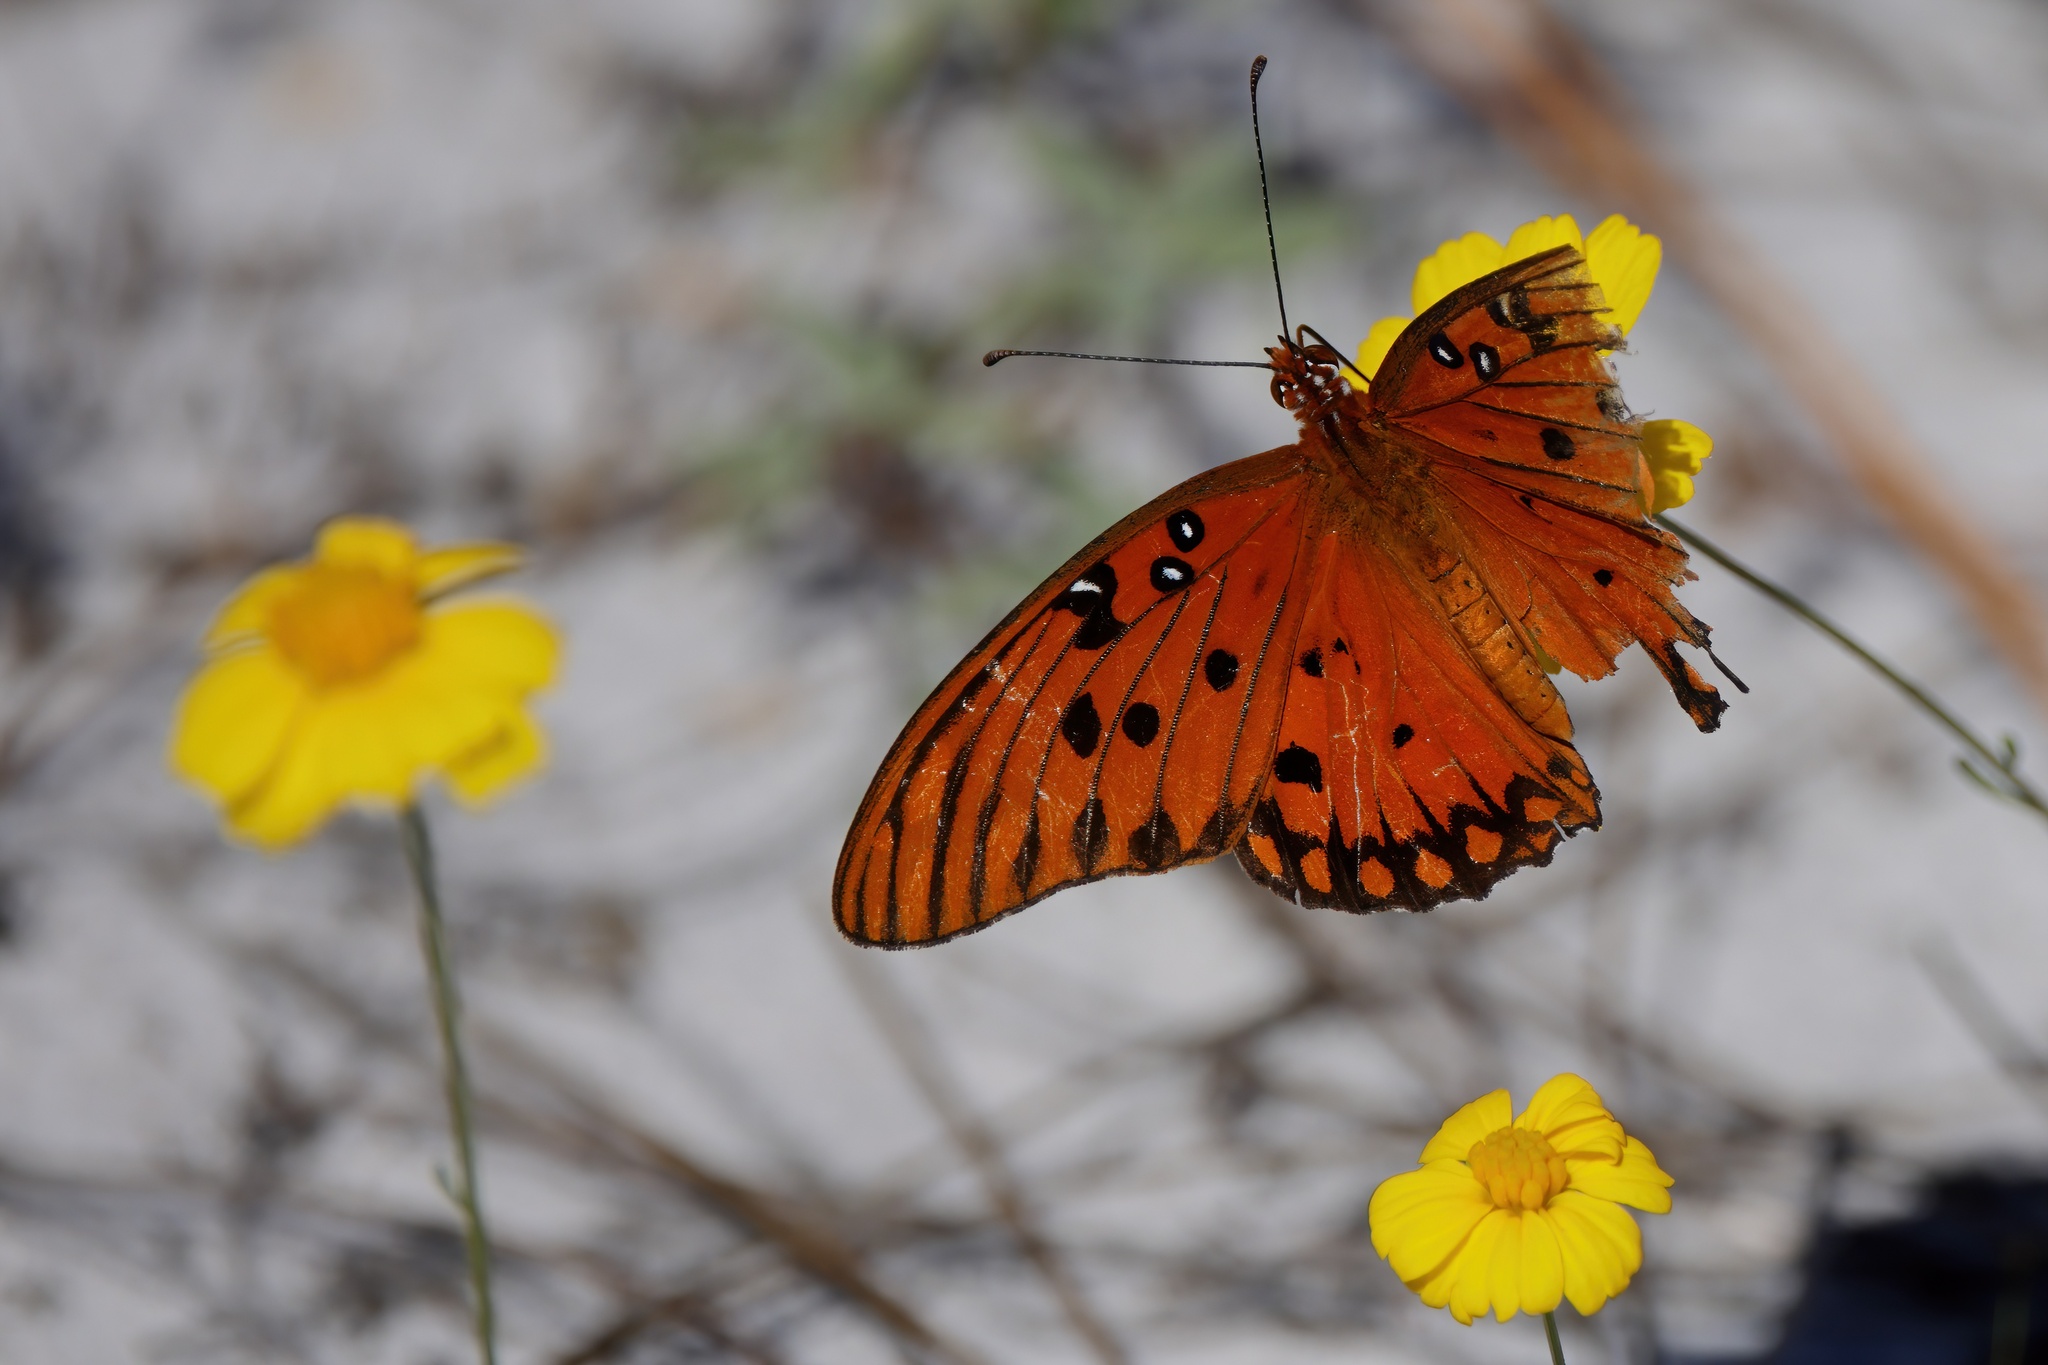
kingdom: Animalia
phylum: Arthropoda
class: Insecta
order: Lepidoptera
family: Nymphalidae
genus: Dione
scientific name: Dione vanillae
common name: Gulf fritillary
